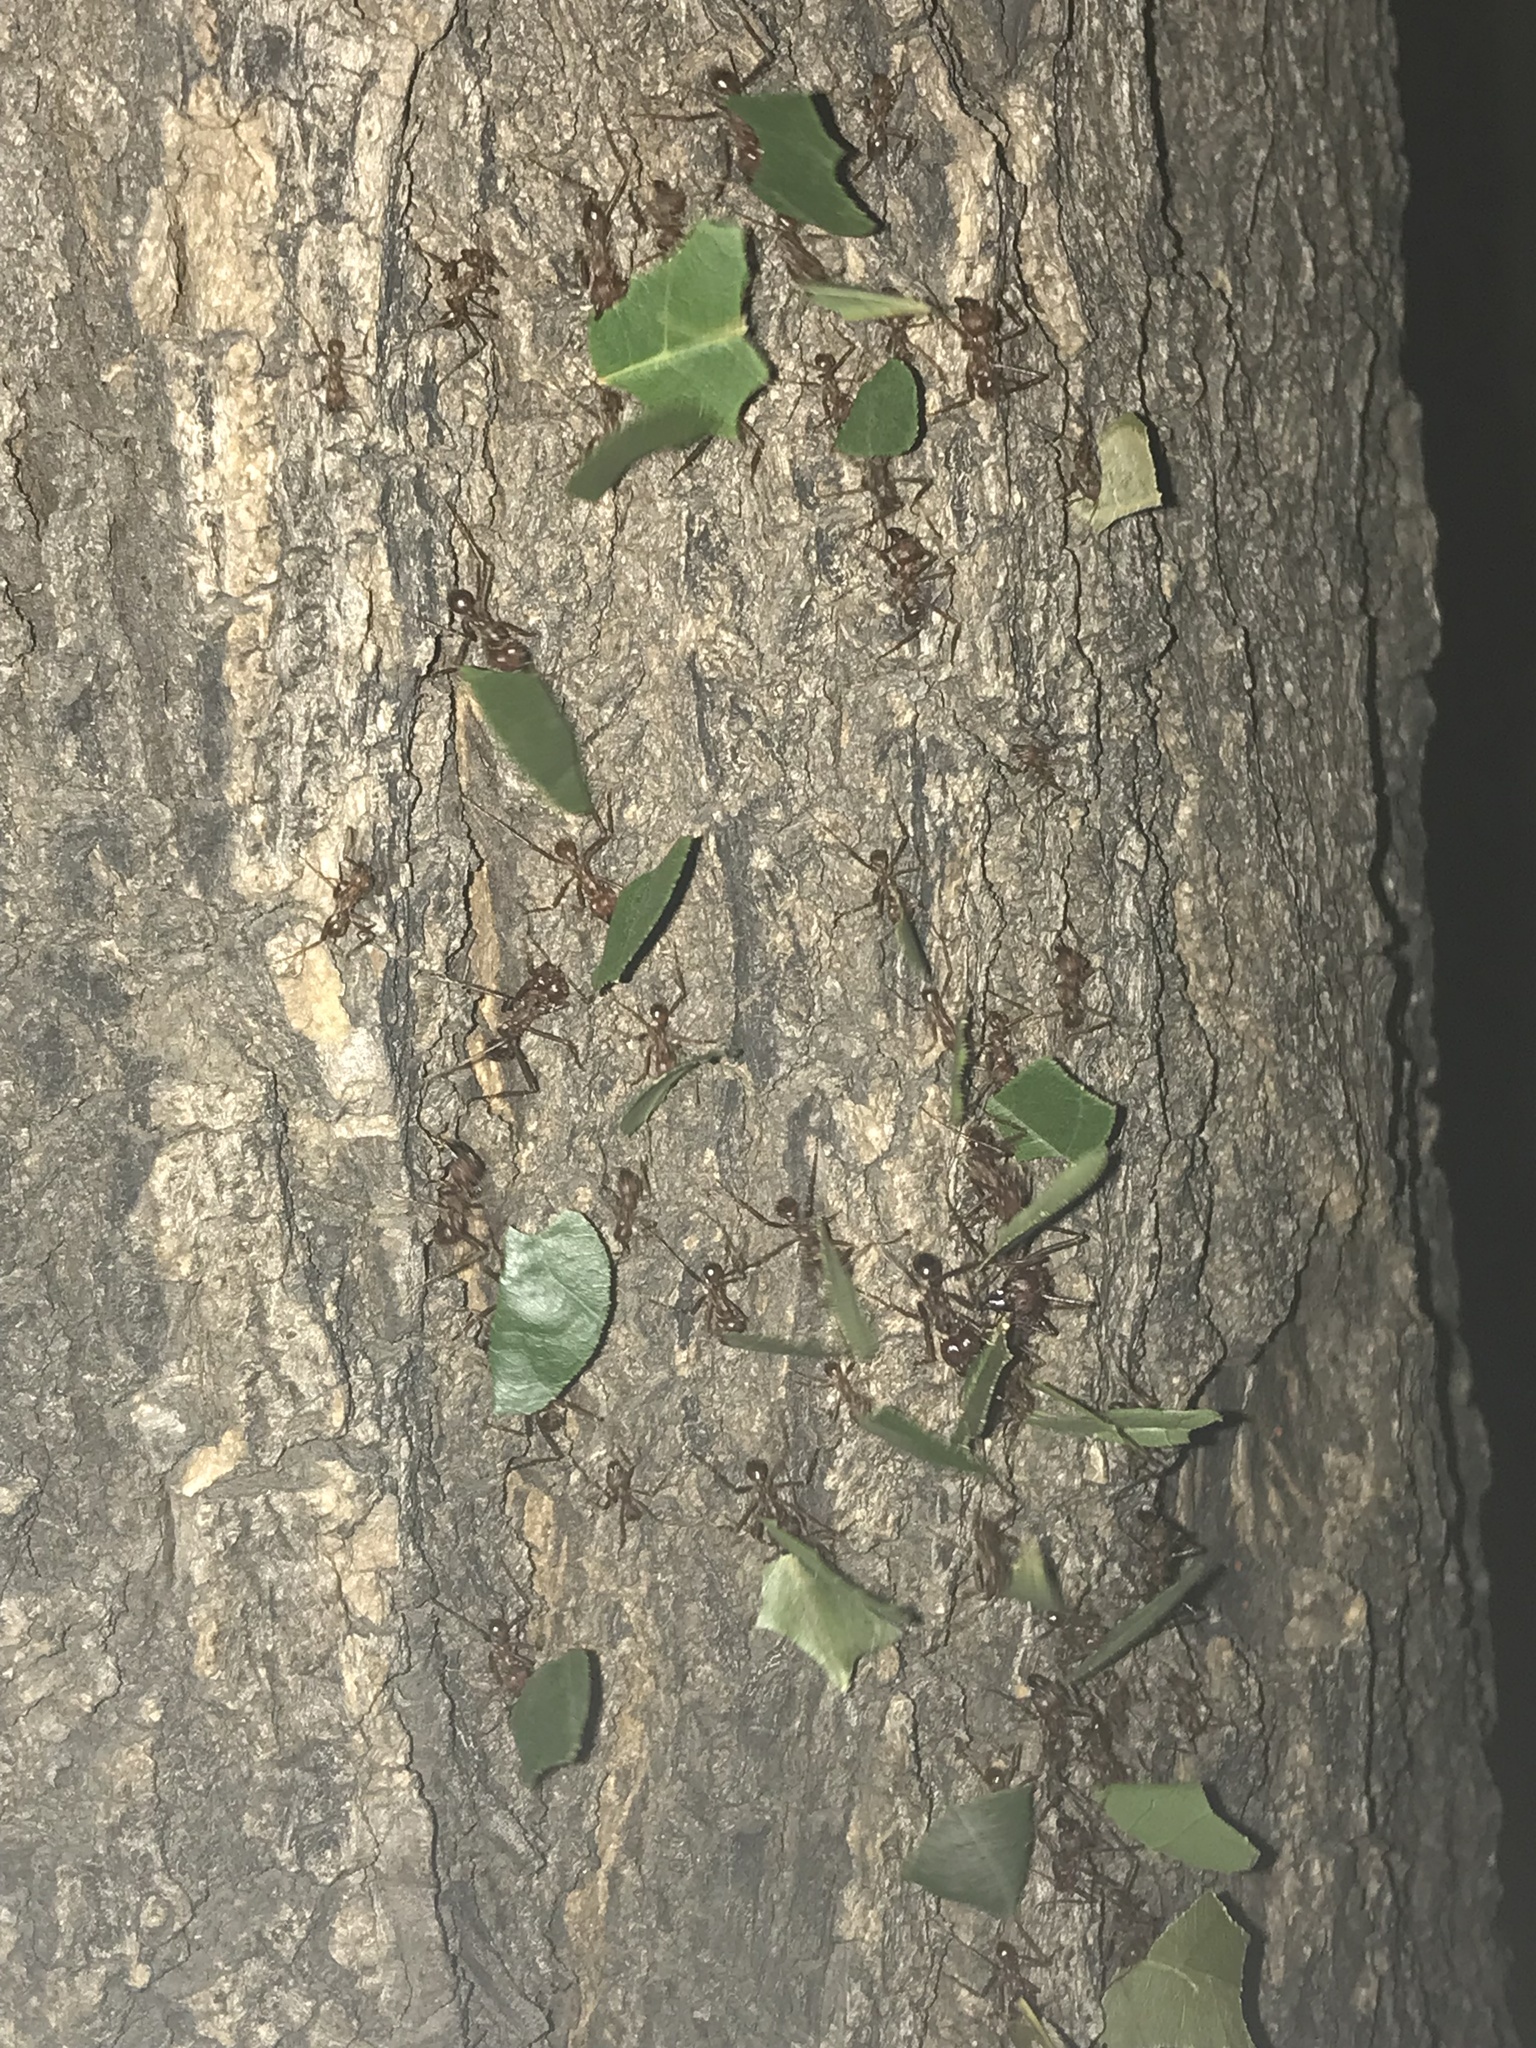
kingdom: Animalia
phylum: Arthropoda
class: Insecta
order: Hymenoptera
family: Formicidae
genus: Atta
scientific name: Atta mexicana
